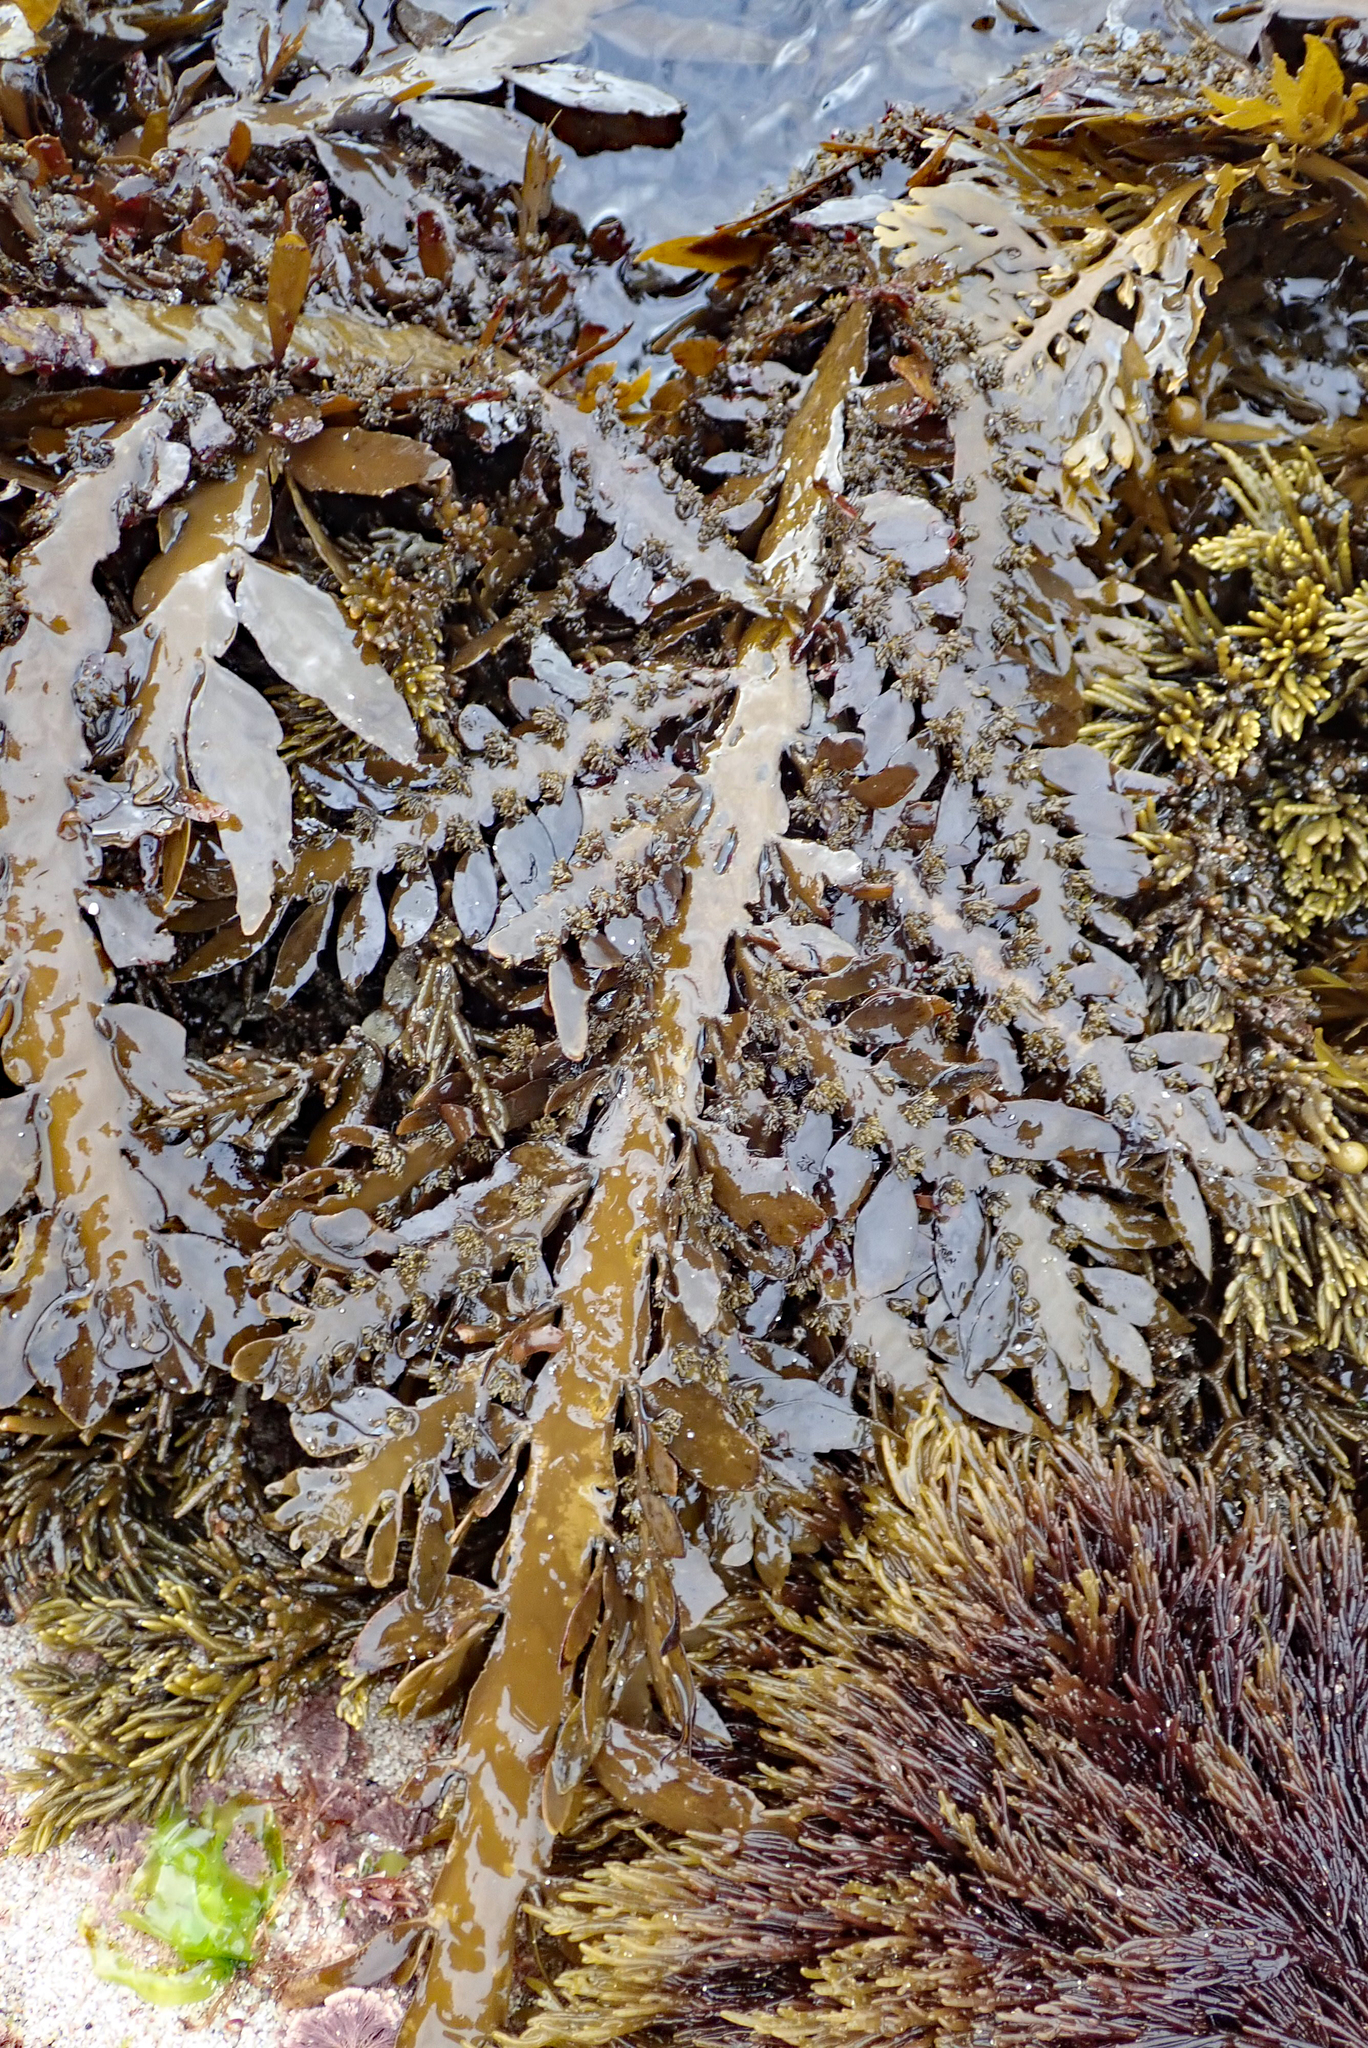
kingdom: Chromista
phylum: Ochrophyta
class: Phaeophyceae
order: Fucales
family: Sargassaceae
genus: Carpophyllum
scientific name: Carpophyllum maschalocarpum
